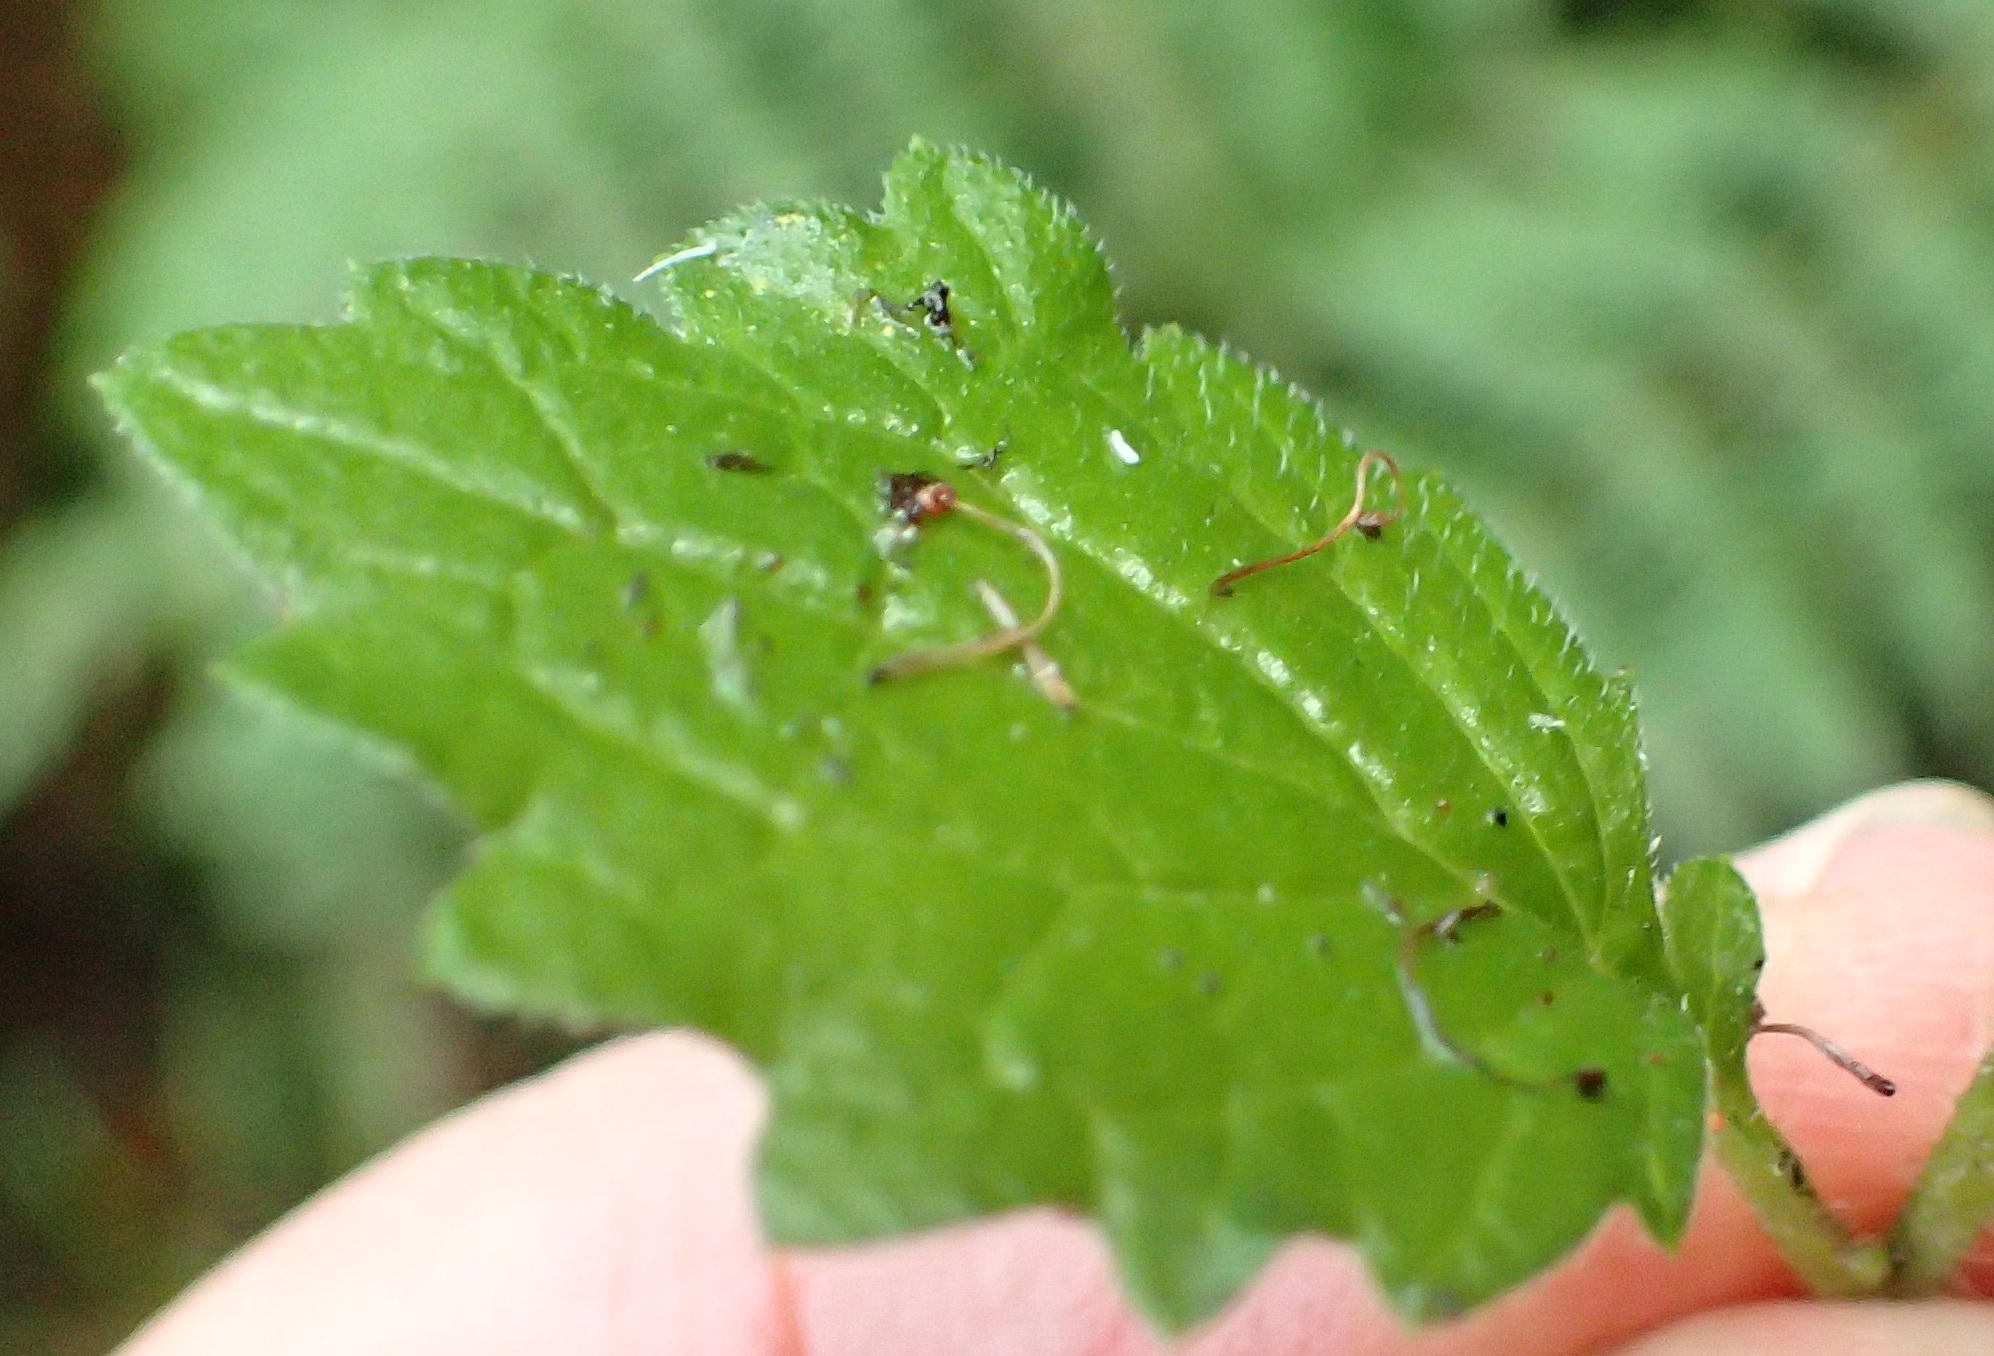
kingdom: Plantae
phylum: Tracheophyta
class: Magnoliopsida
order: Asterales
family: Asteraceae
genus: Dichrocephala
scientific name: Dichrocephala integrifolia
